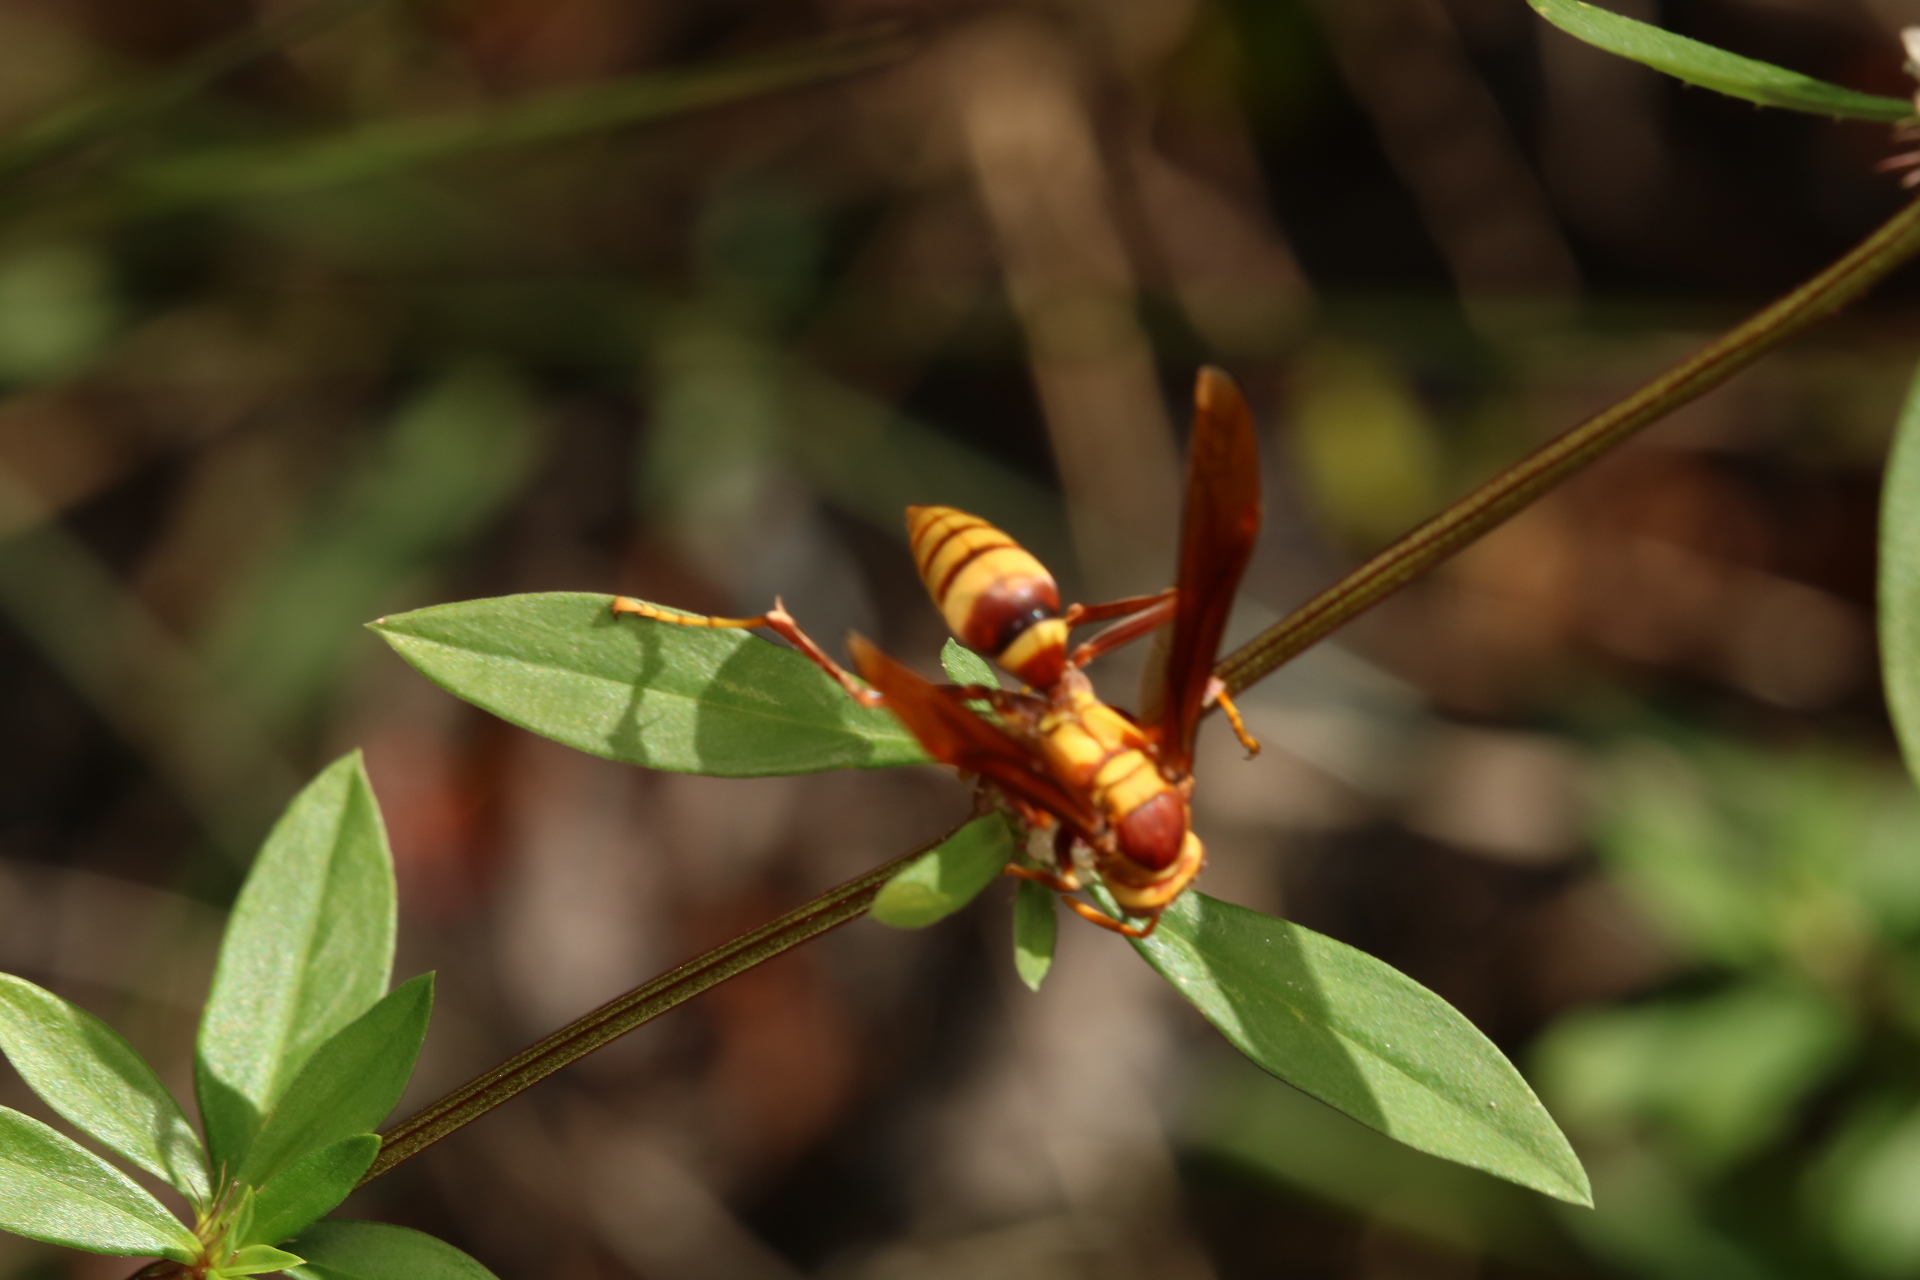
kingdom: Animalia
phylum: Arthropoda
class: Insecta
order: Hymenoptera
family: Eumenidae
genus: Polistes
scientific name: Polistes major
